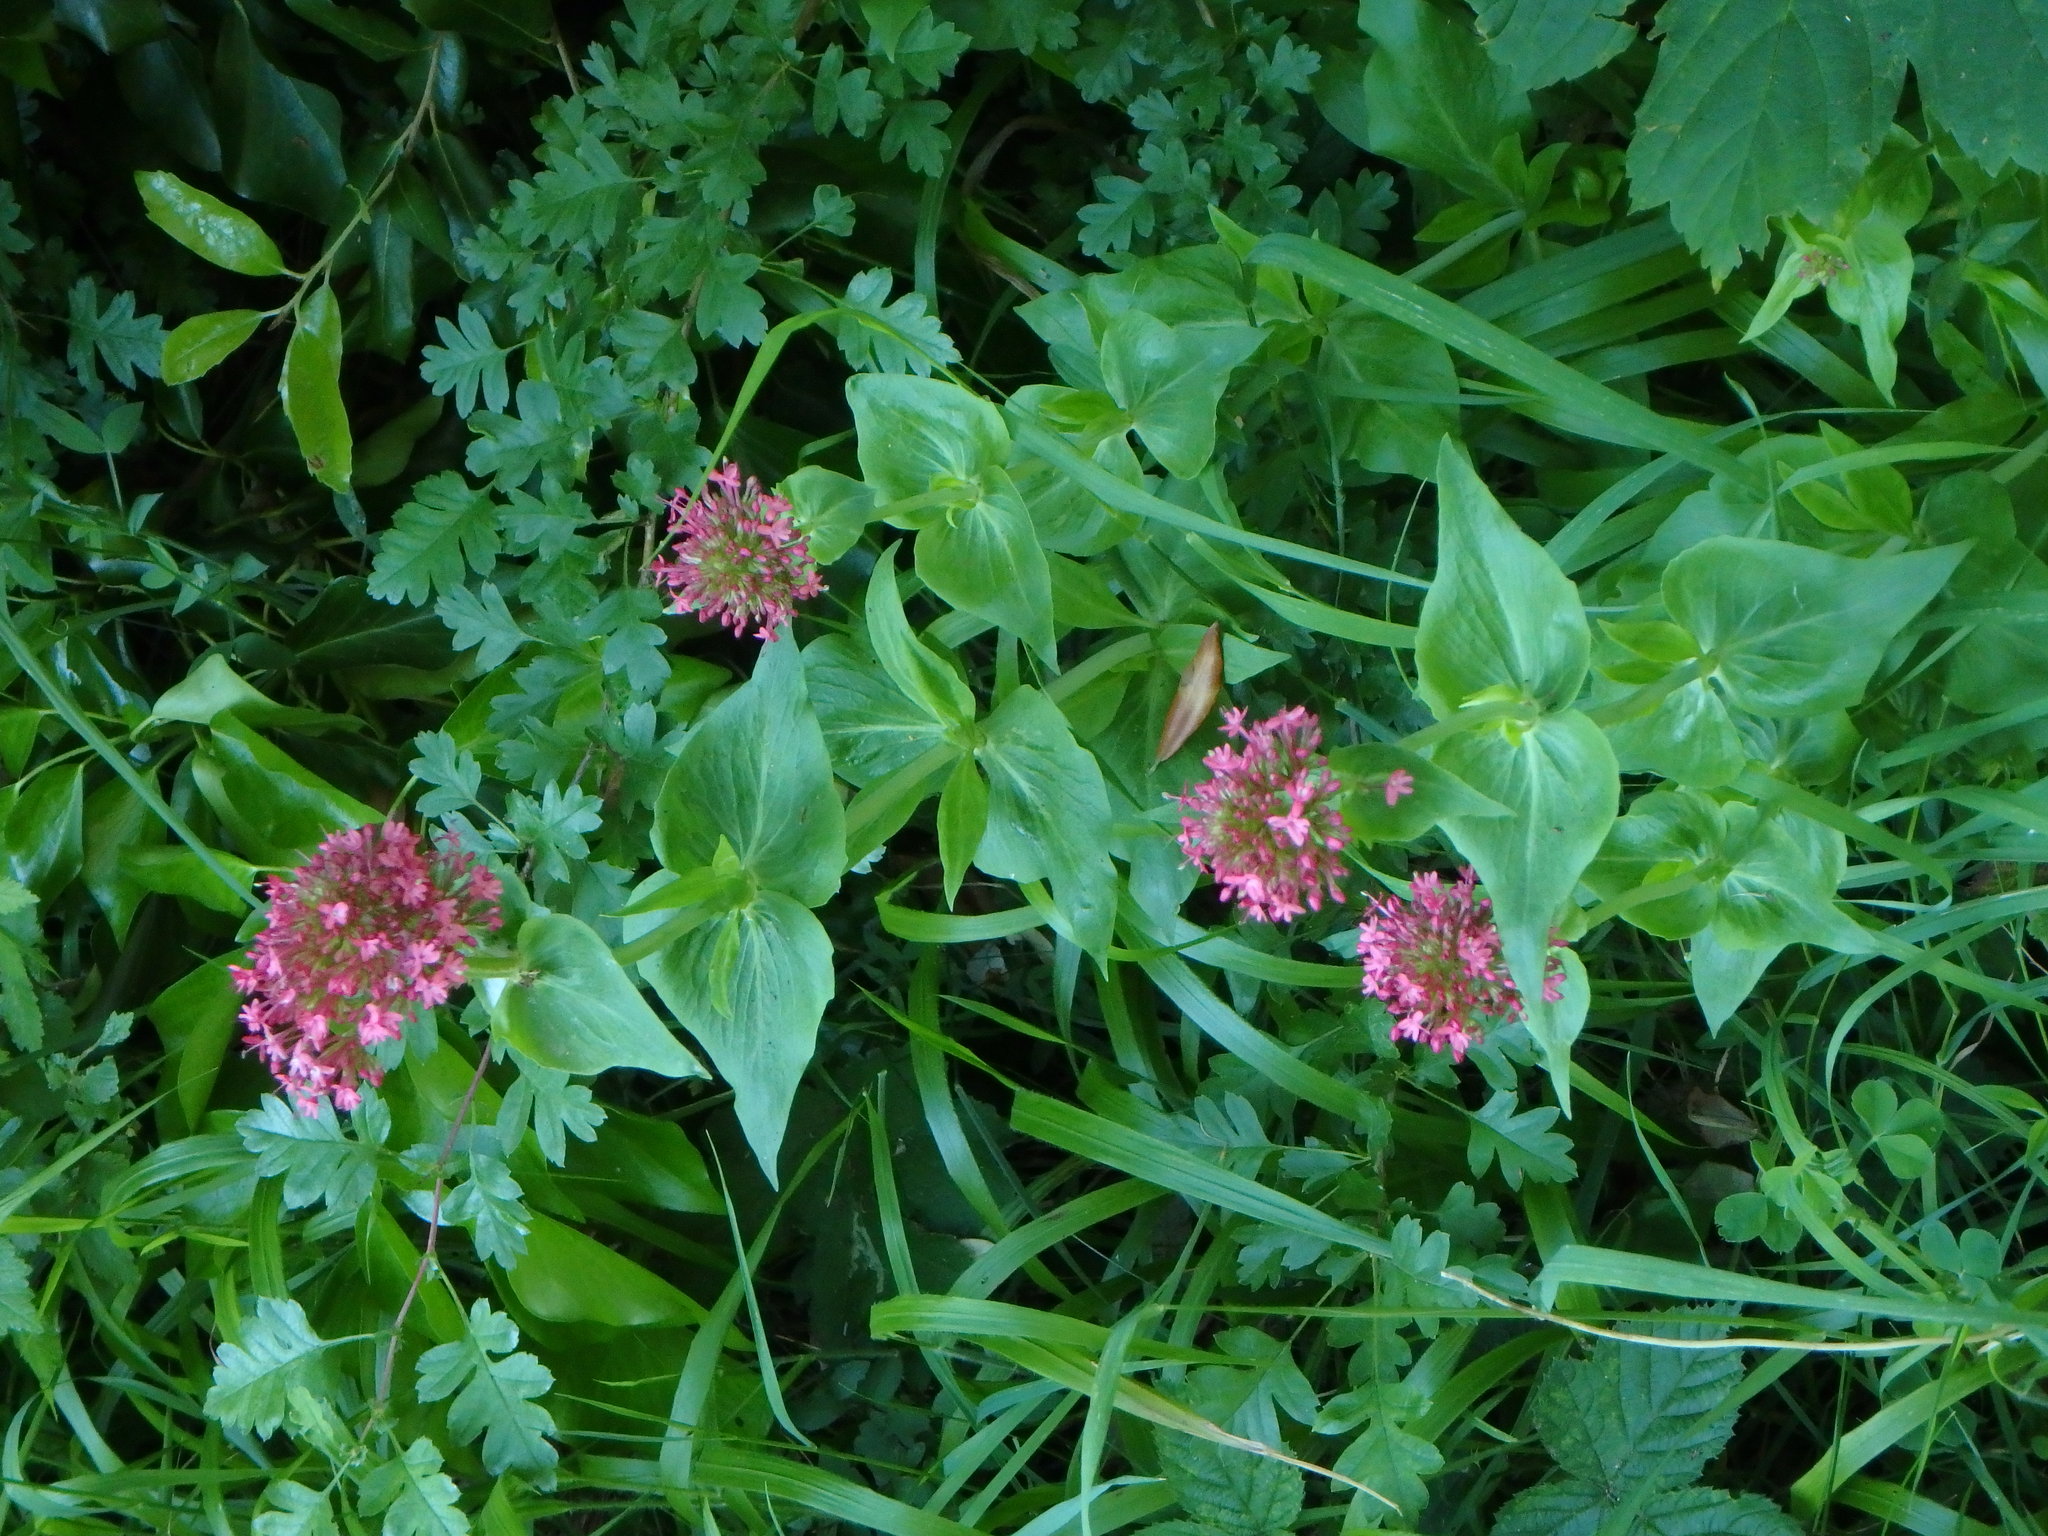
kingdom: Plantae
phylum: Tracheophyta
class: Magnoliopsida
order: Dipsacales
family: Caprifoliaceae
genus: Centranthus
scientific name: Centranthus ruber
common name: Red valerian
